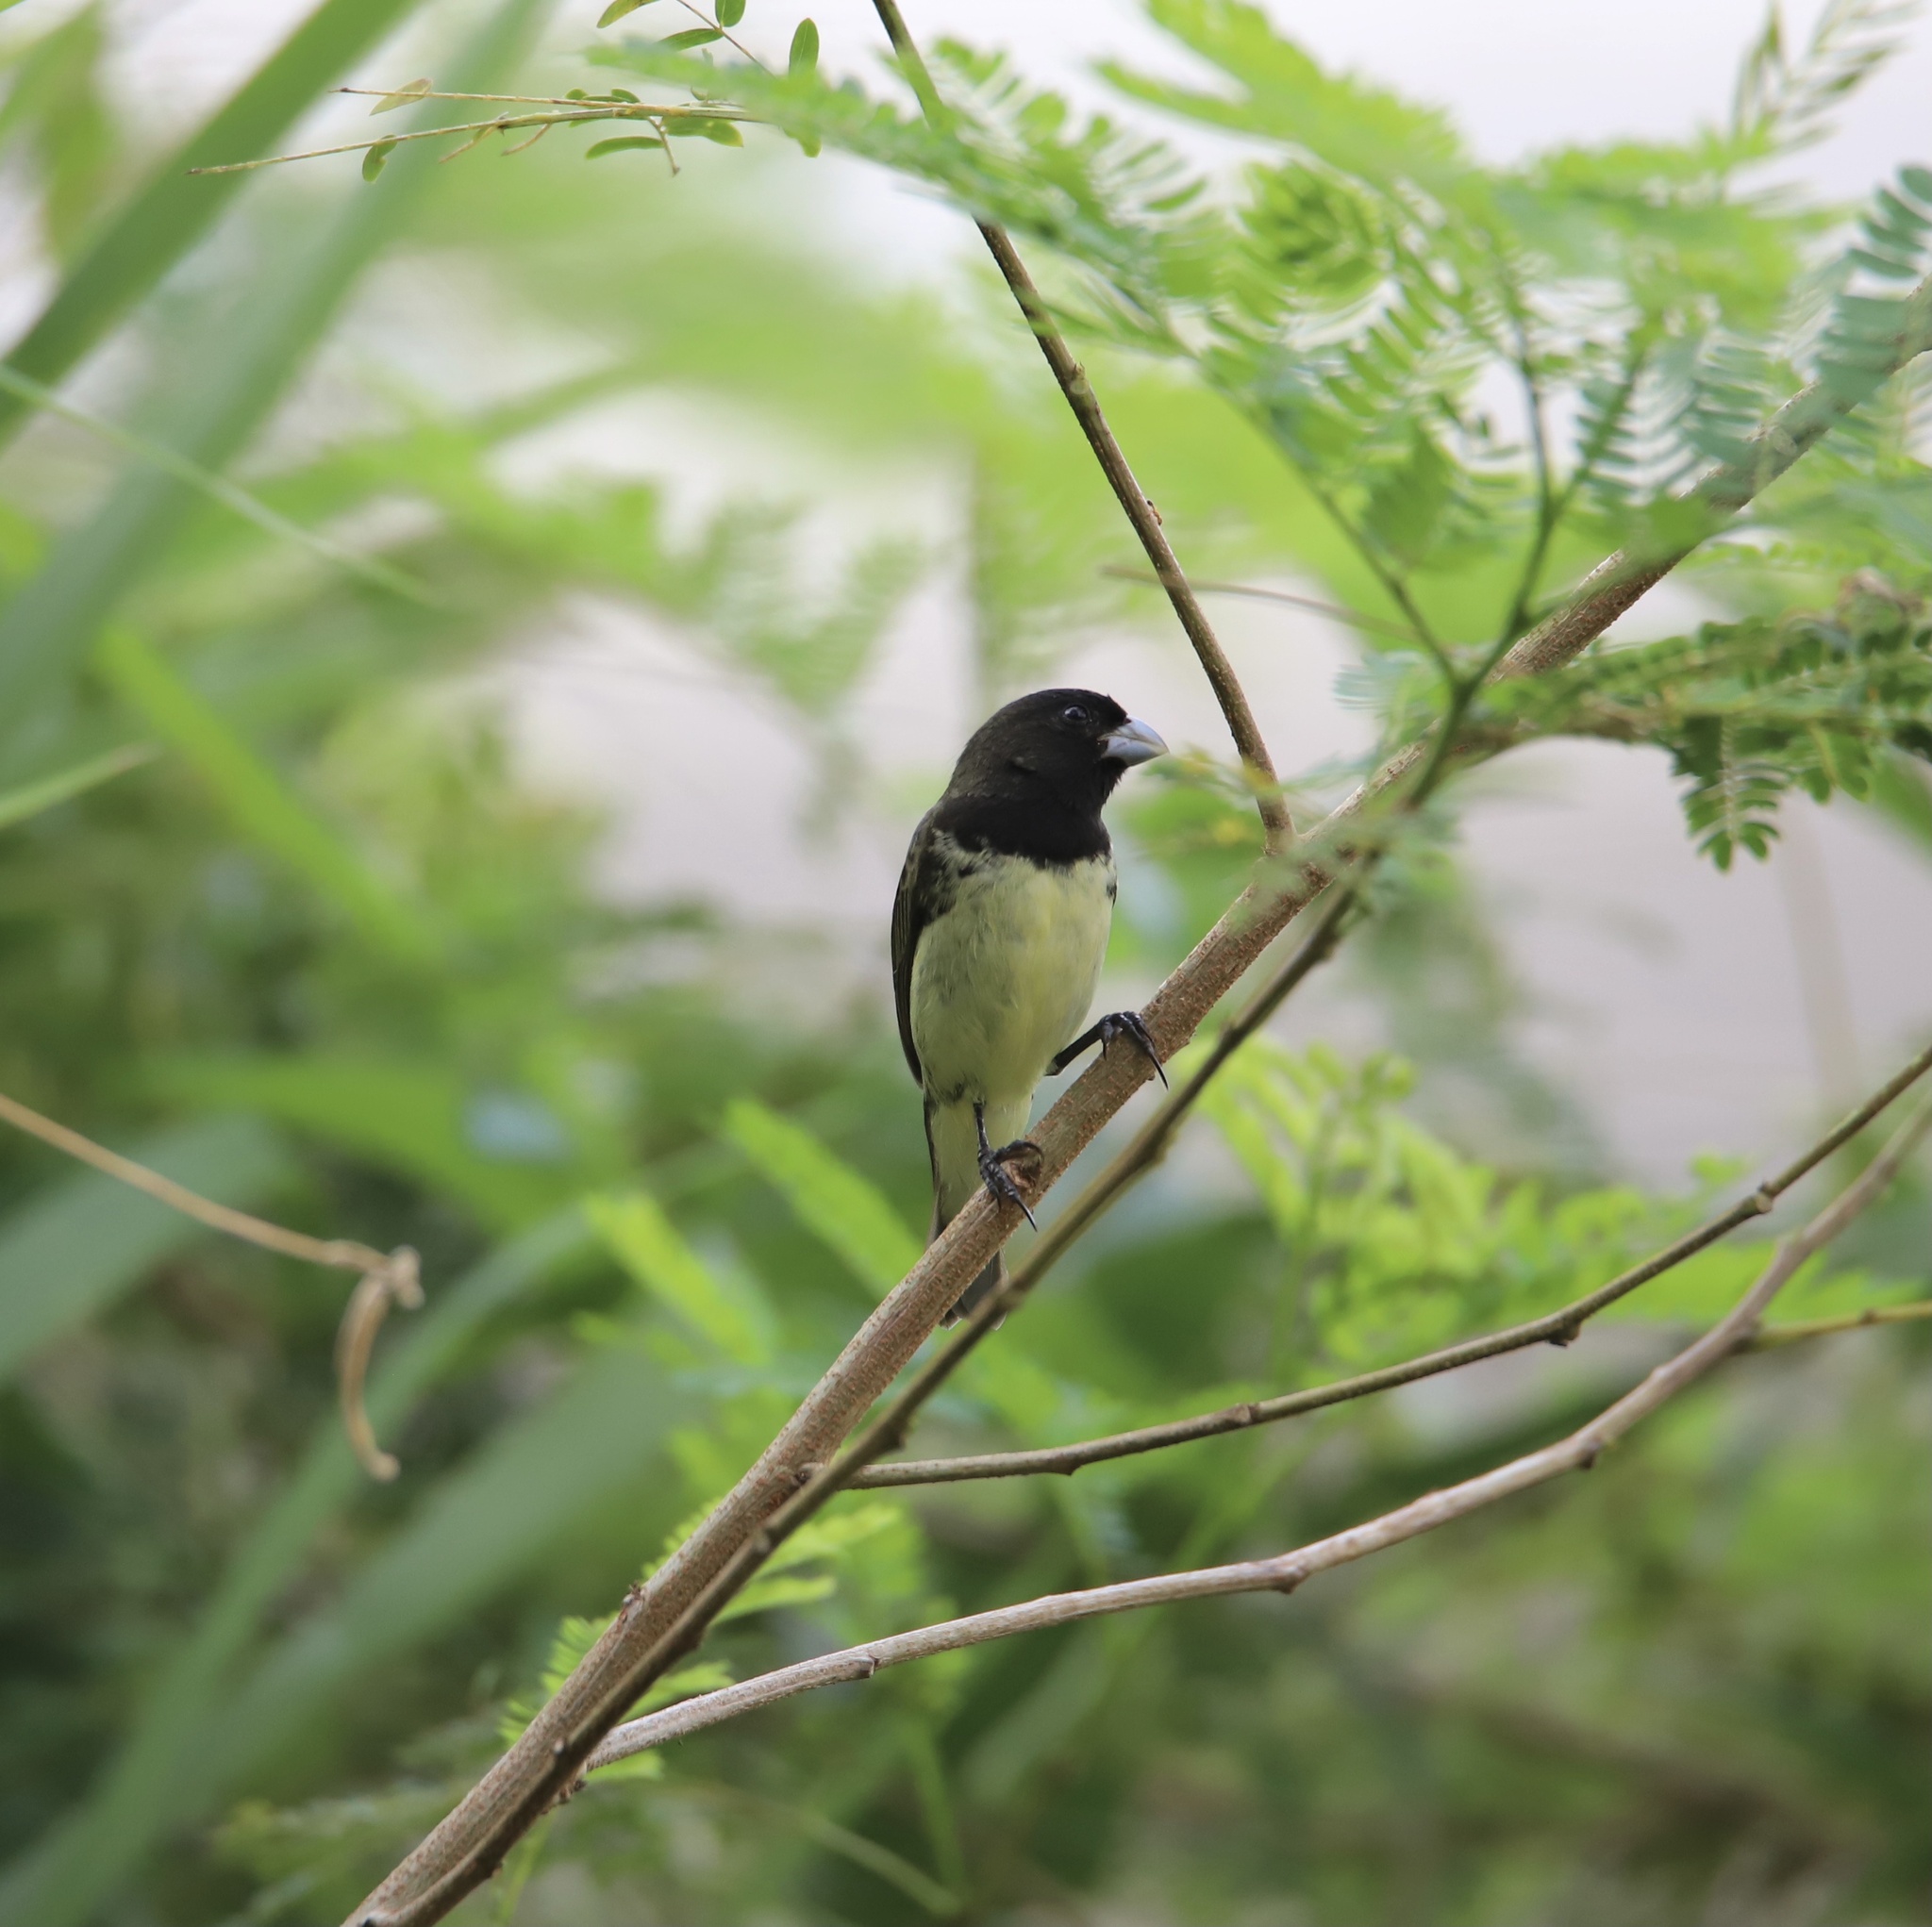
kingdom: Animalia
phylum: Chordata
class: Aves
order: Passeriformes
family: Thraupidae
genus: Sporophila
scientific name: Sporophila nigricollis
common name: Yellow-bellied seedeater
